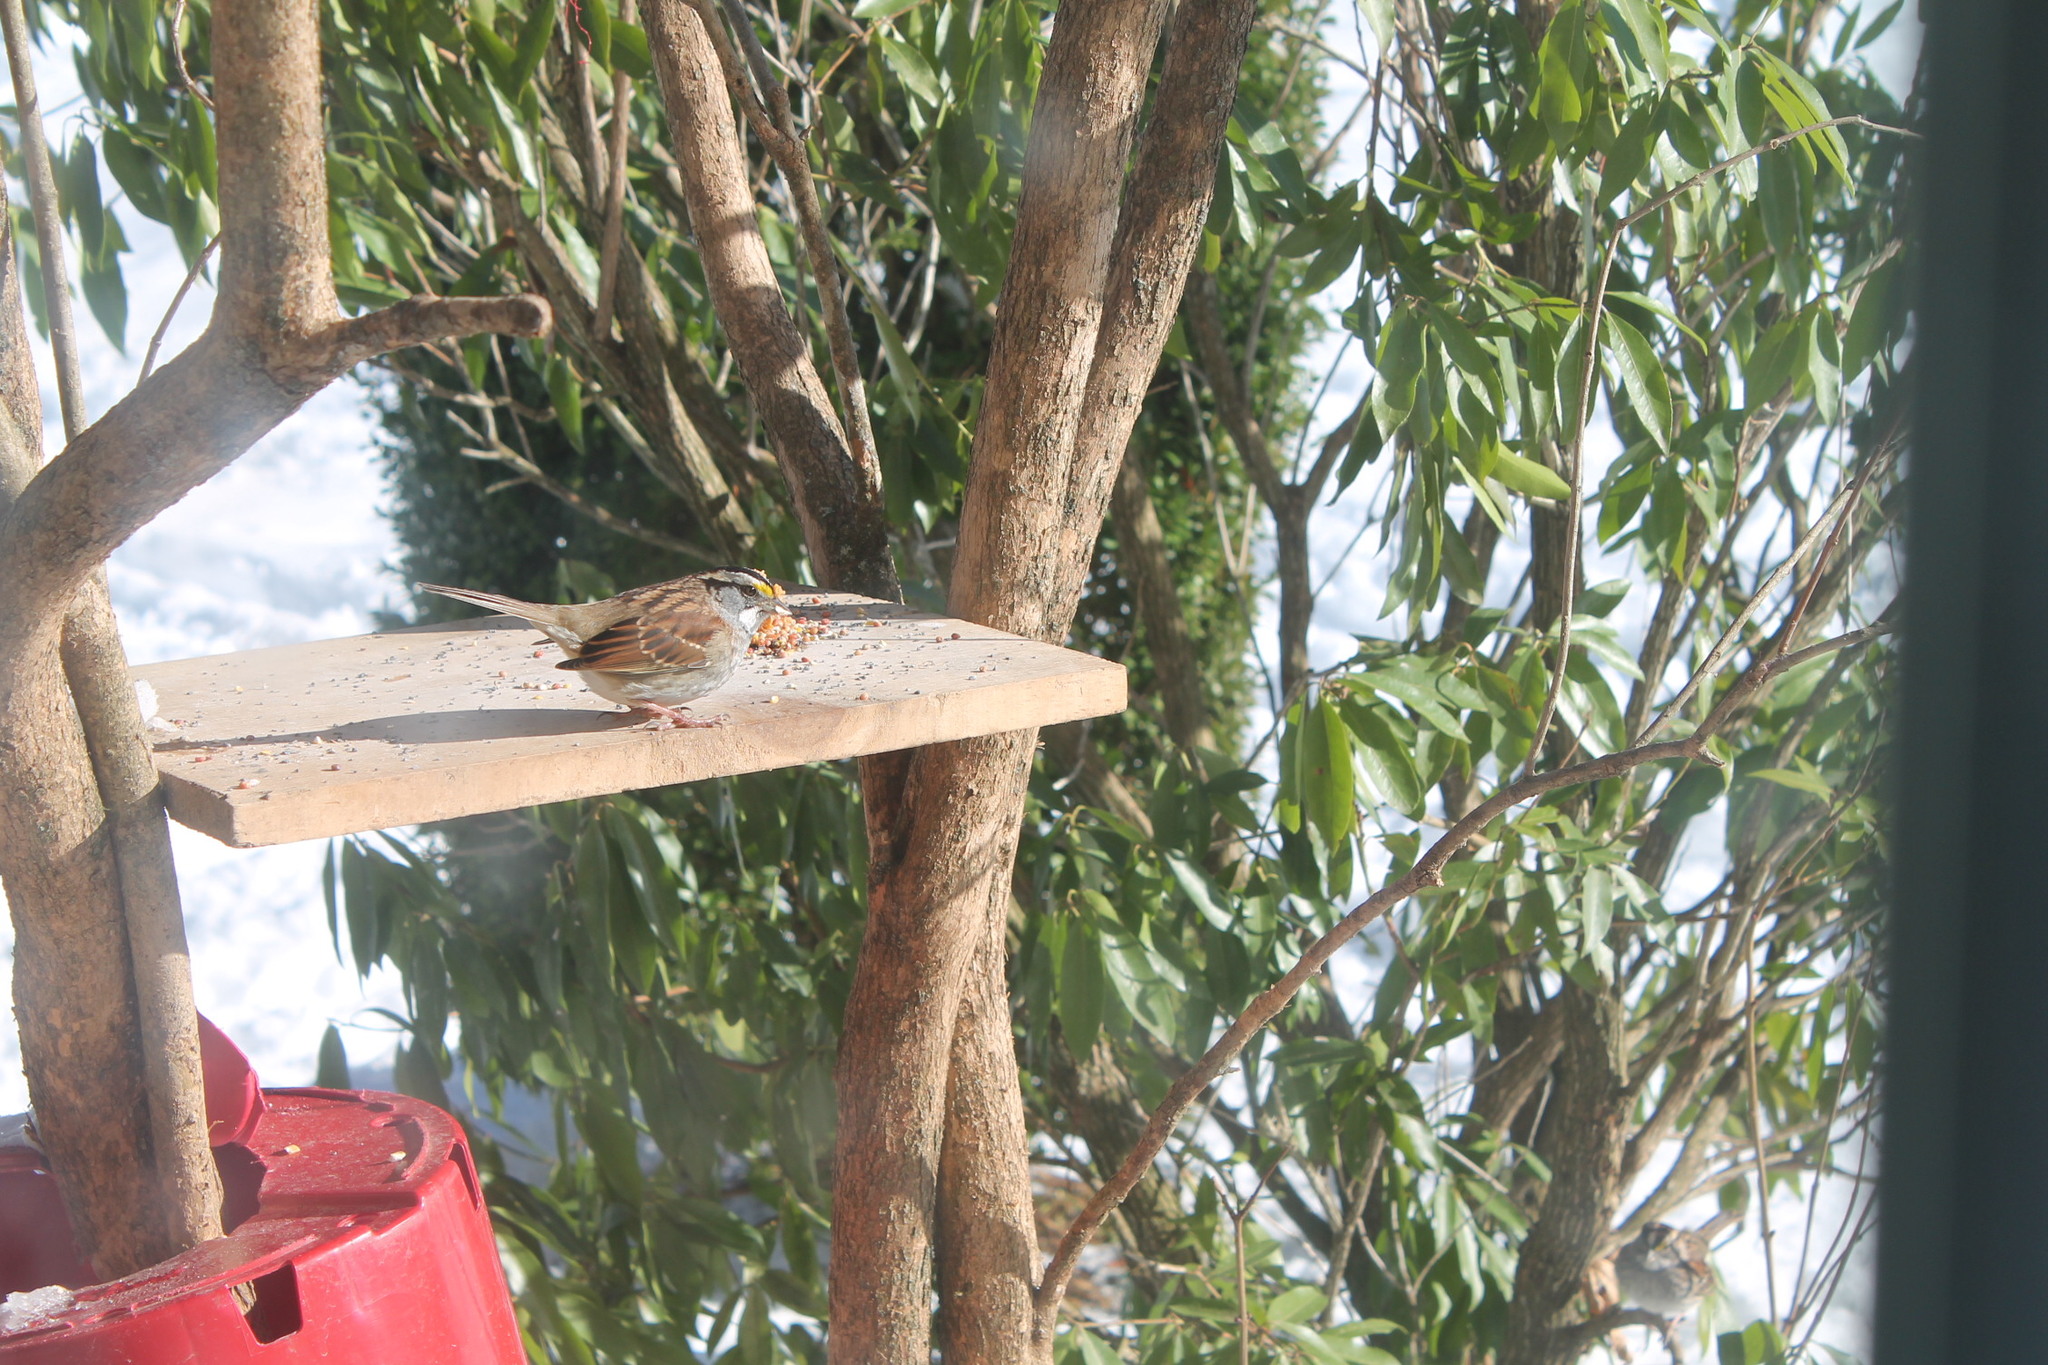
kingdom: Animalia
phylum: Chordata
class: Aves
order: Passeriformes
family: Passerellidae
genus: Zonotrichia
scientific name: Zonotrichia albicollis
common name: White-throated sparrow
